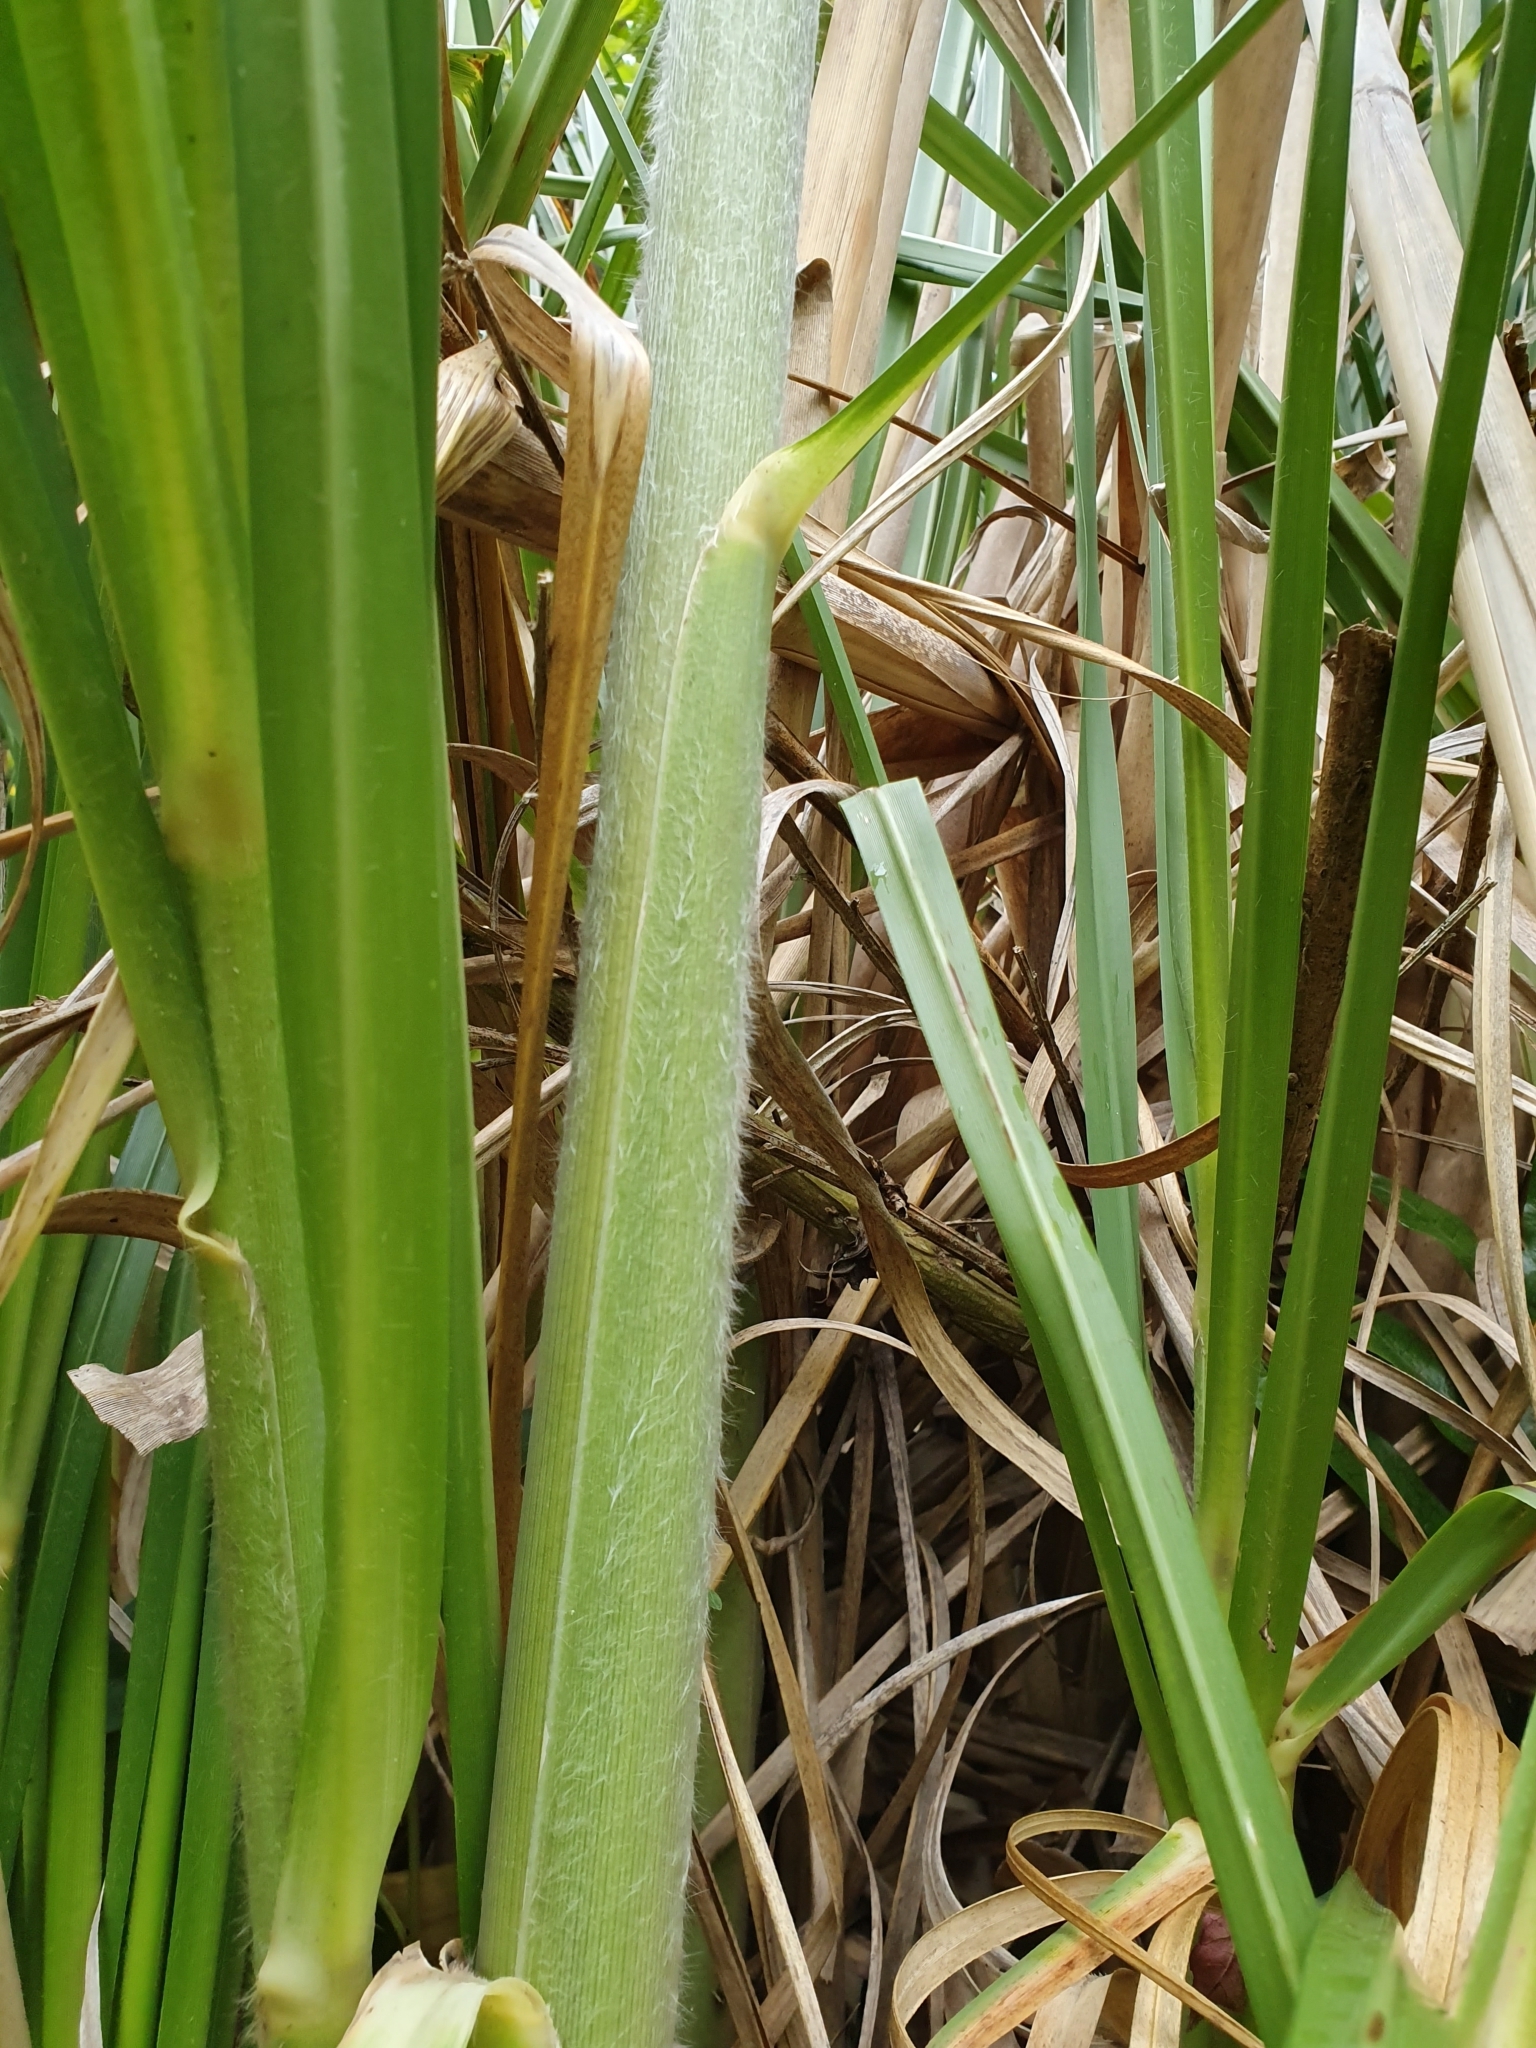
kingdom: Plantae
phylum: Tracheophyta
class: Liliopsida
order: Poales
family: Poaceae
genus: Cortaderia
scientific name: Cortaderia jubata
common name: Purple pampas grass
